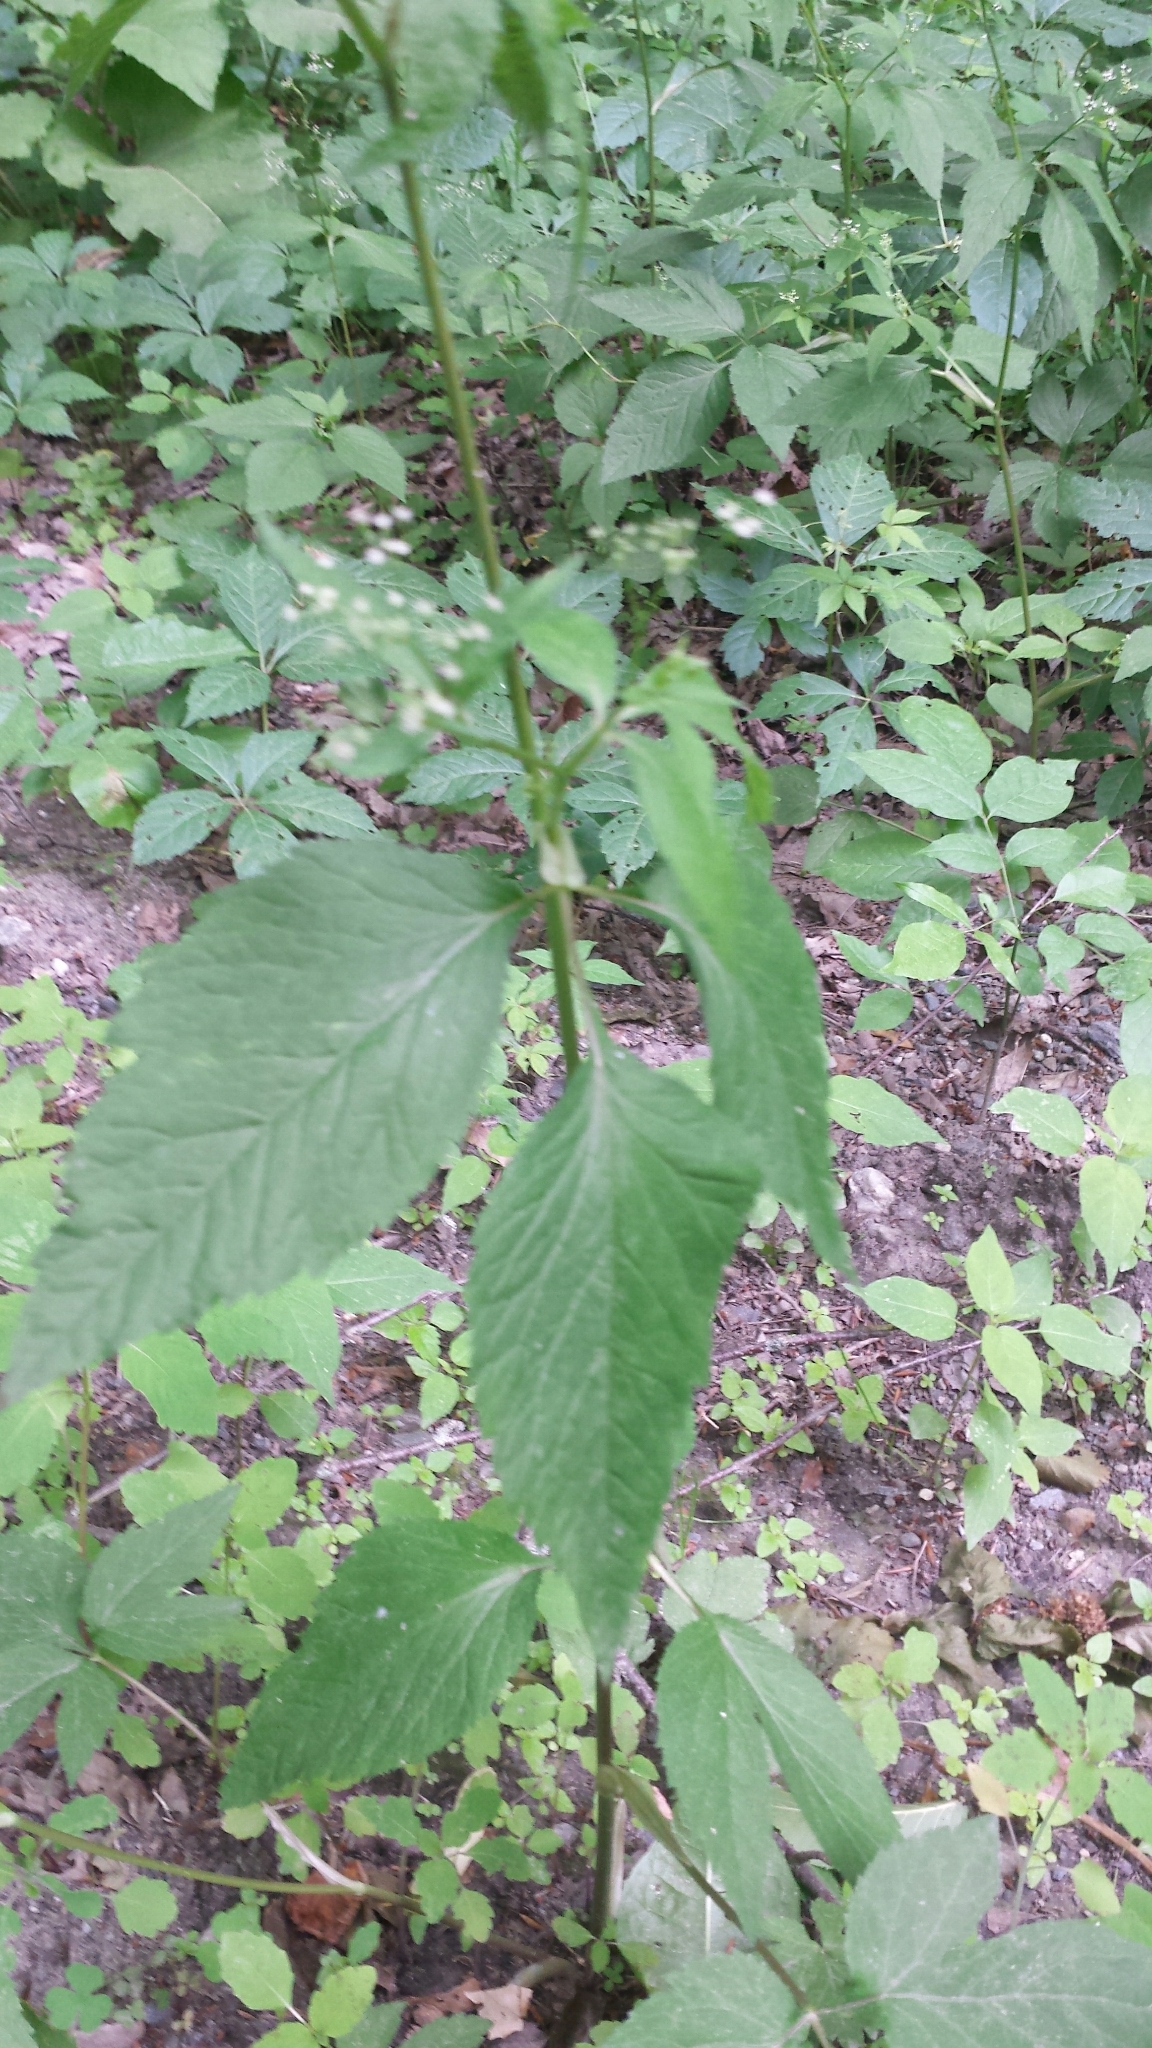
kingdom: Plantae
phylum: Tracheophyta
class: Magnoliopsida
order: Apiales
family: Apiaceae
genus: Cryptotaenia
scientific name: Cryptotaenia canadensis
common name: Honewort
